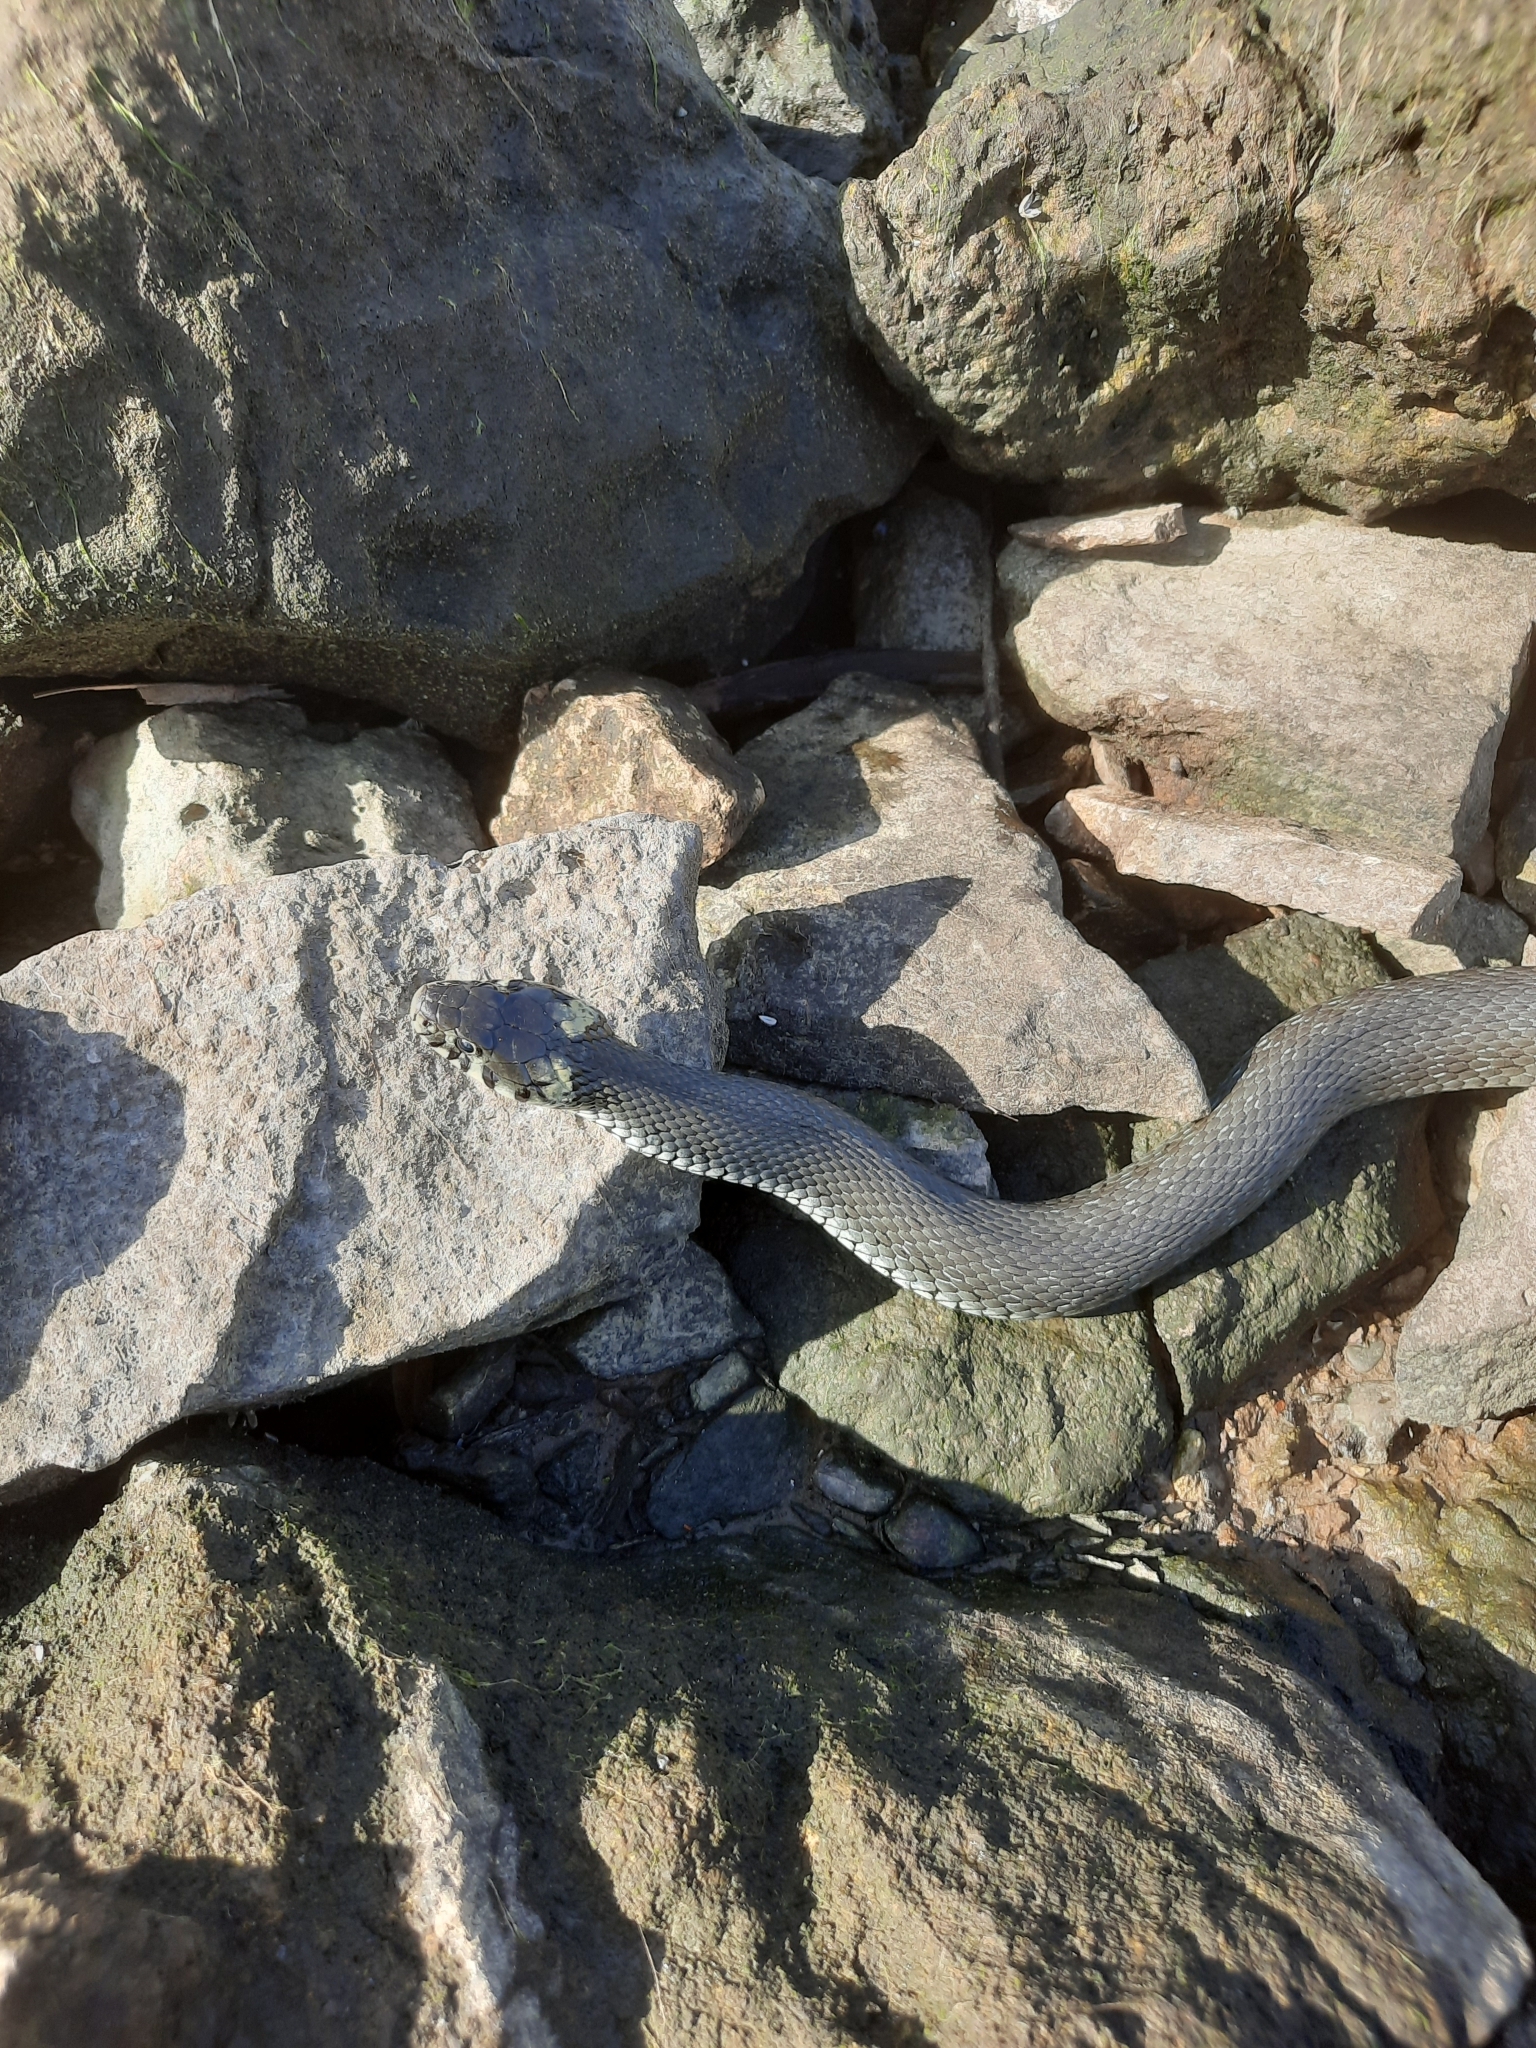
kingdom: Animalia
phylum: Chordata
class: Squamata
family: Colubridae
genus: Natrix
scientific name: Natrix natrix
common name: Grass snake
